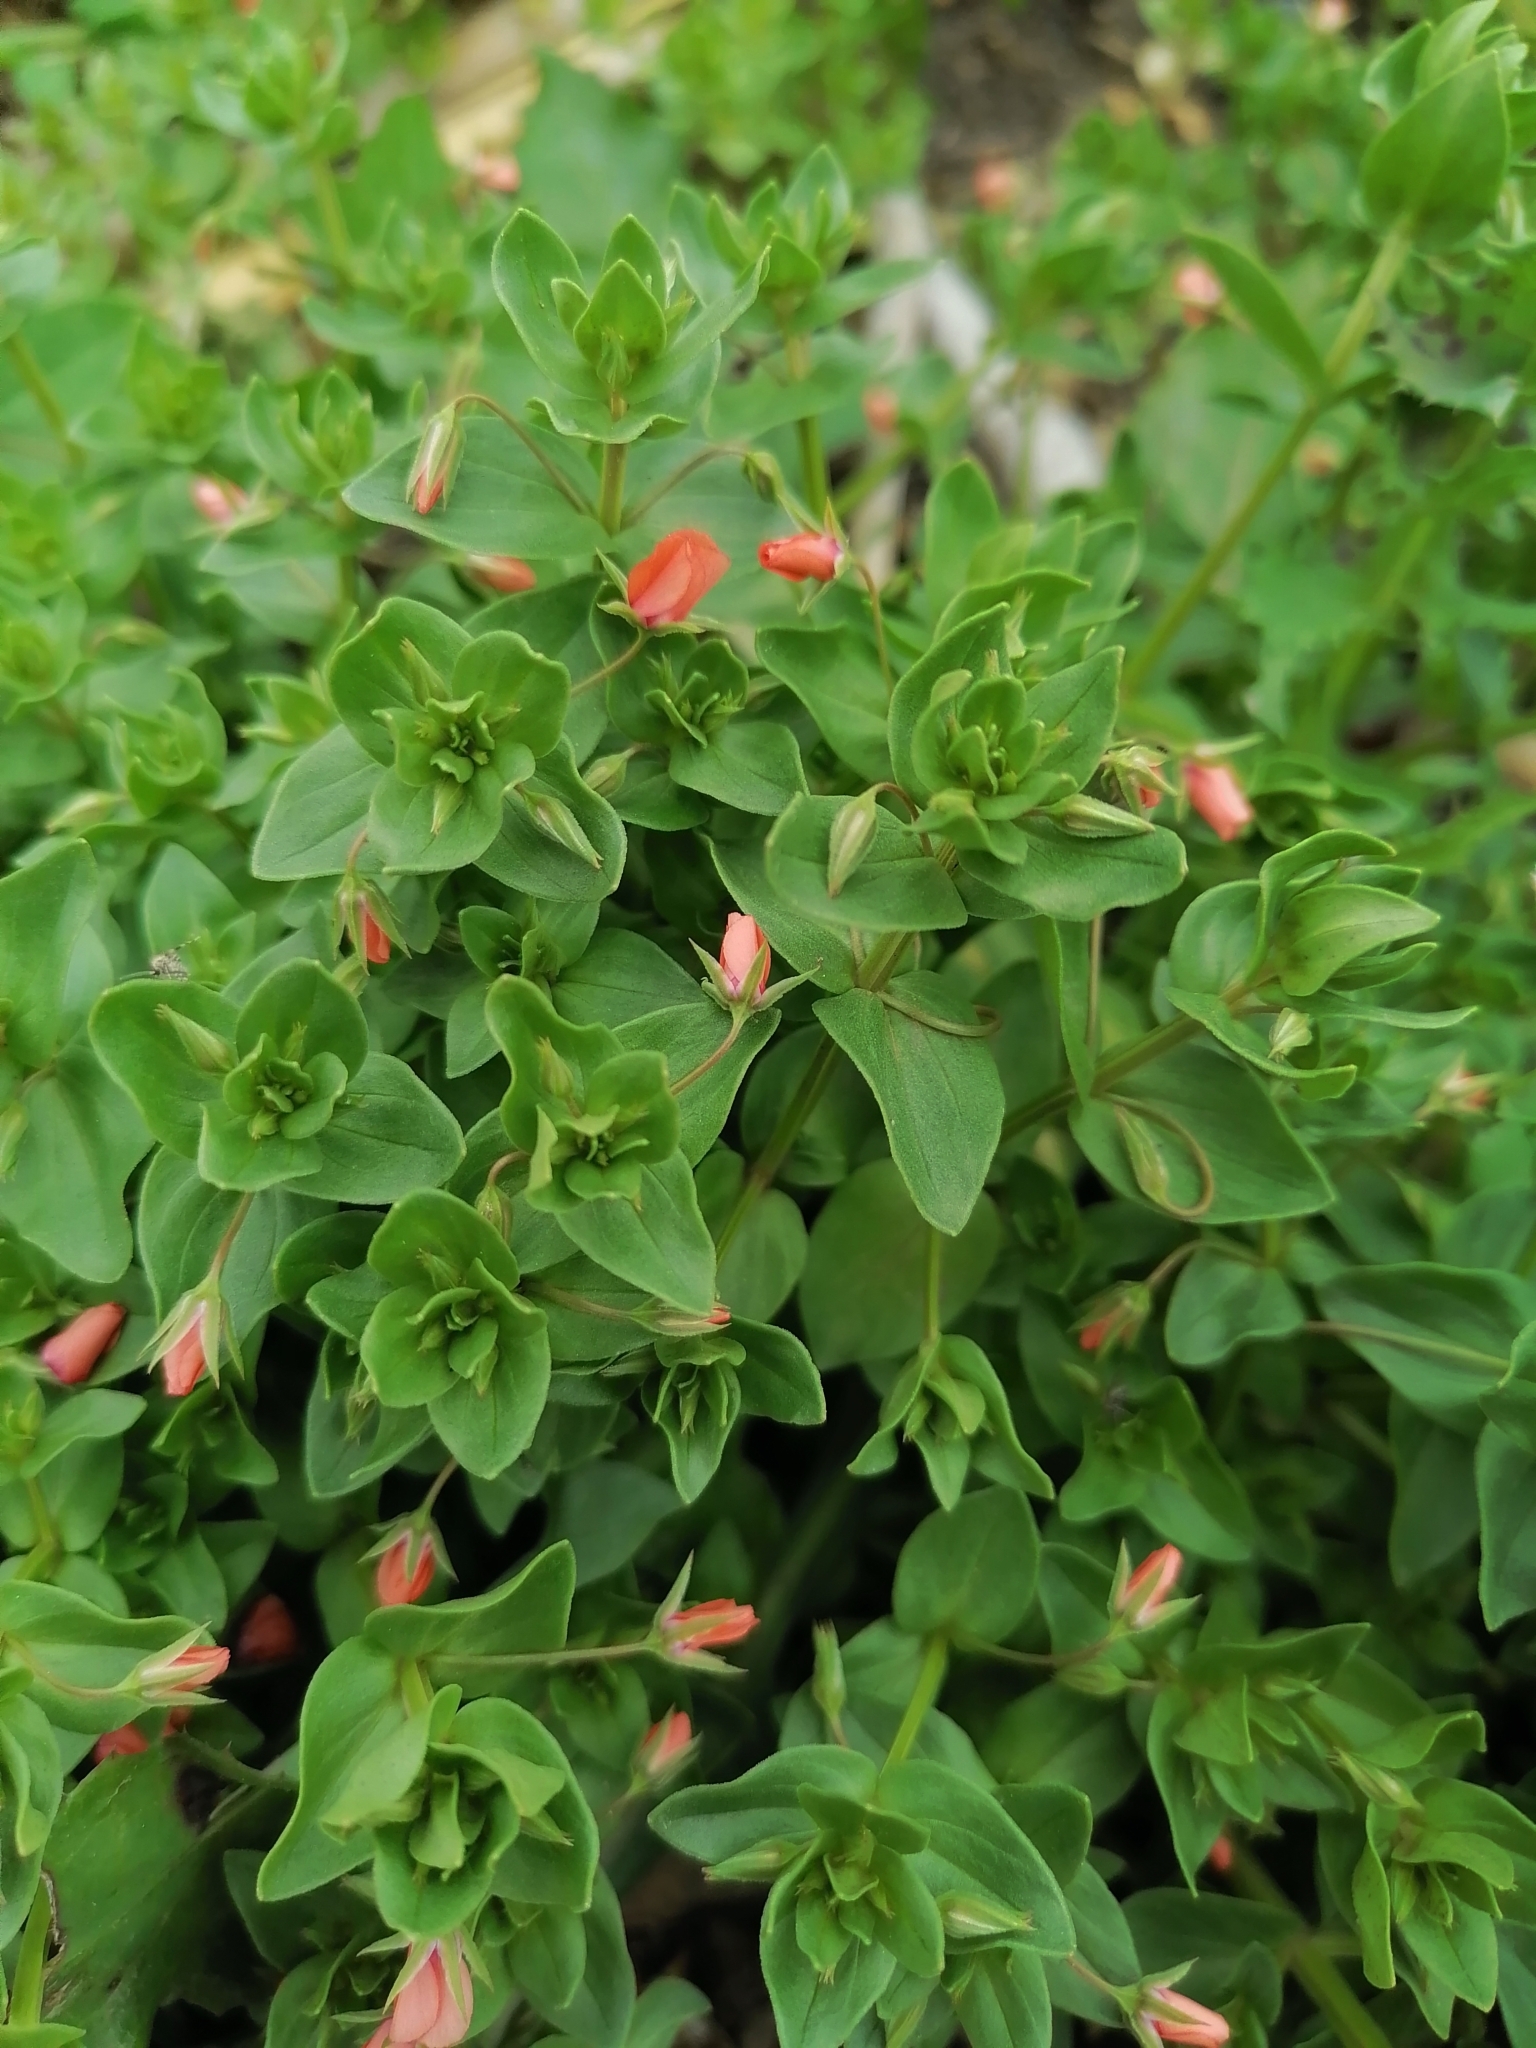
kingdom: Plantae
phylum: Tracheophyta
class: Magnoliopsida
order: Ericales
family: Primulaceae
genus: Lysimachia
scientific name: Lysimachia arvensis
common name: Scarlet pimpernel
